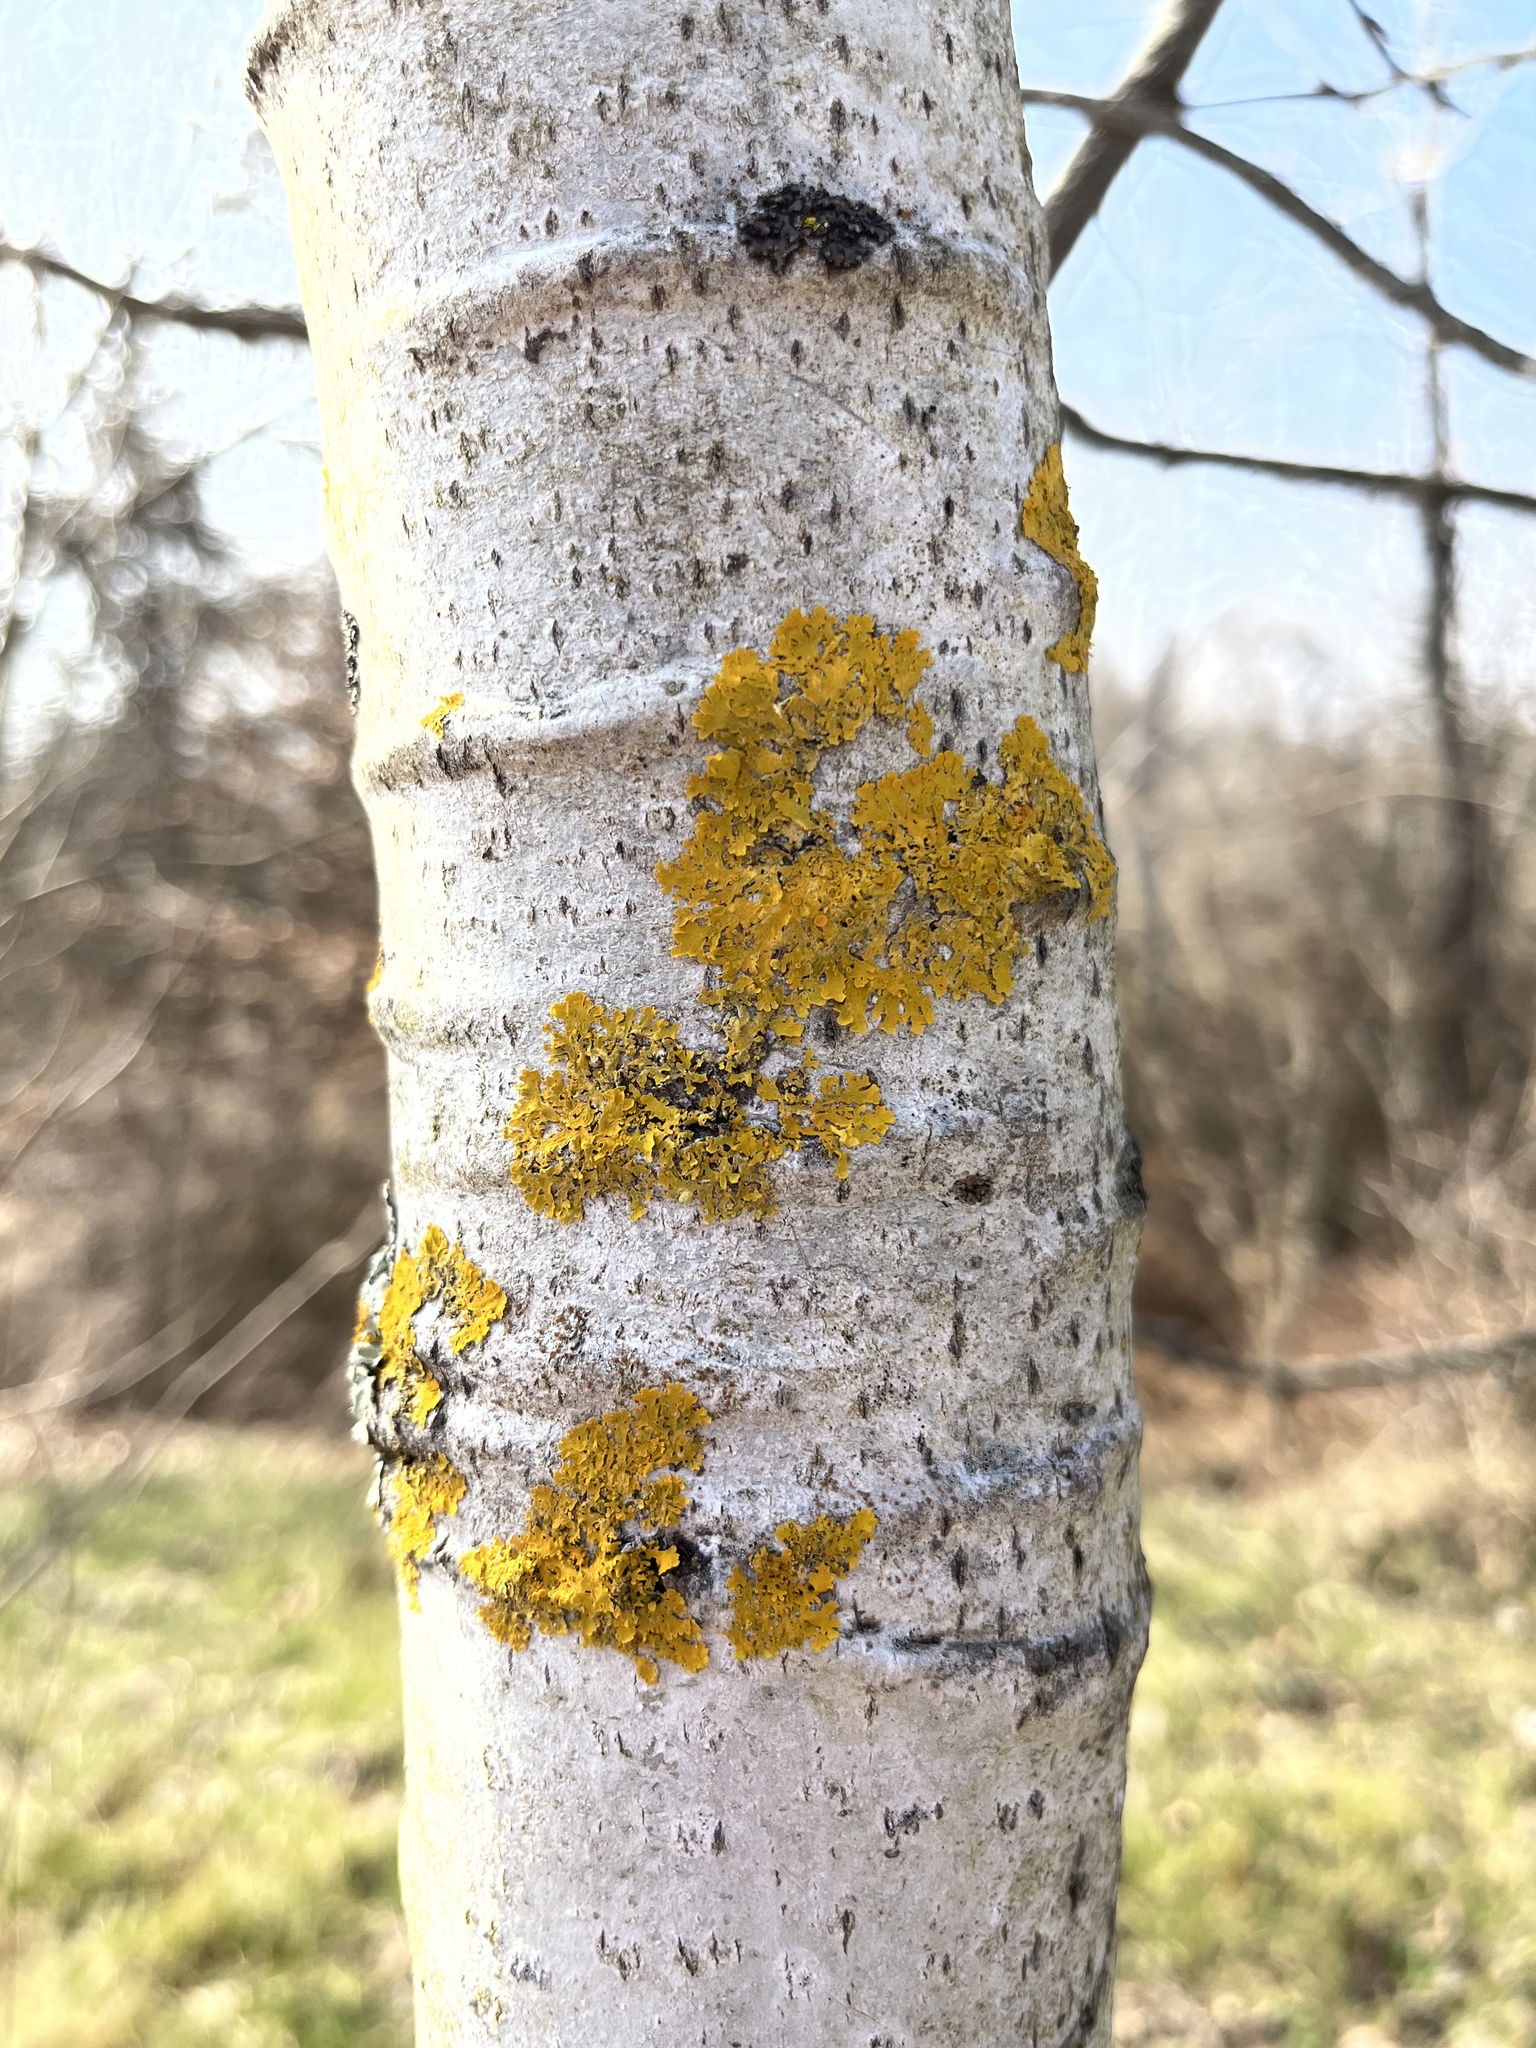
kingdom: Fungi
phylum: Ascomycota
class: Lecanoromycetes
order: Teloschistales
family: Teloschistaceae
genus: Xanthoria
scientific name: Xanthoria parietina
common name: Common orange lichen
